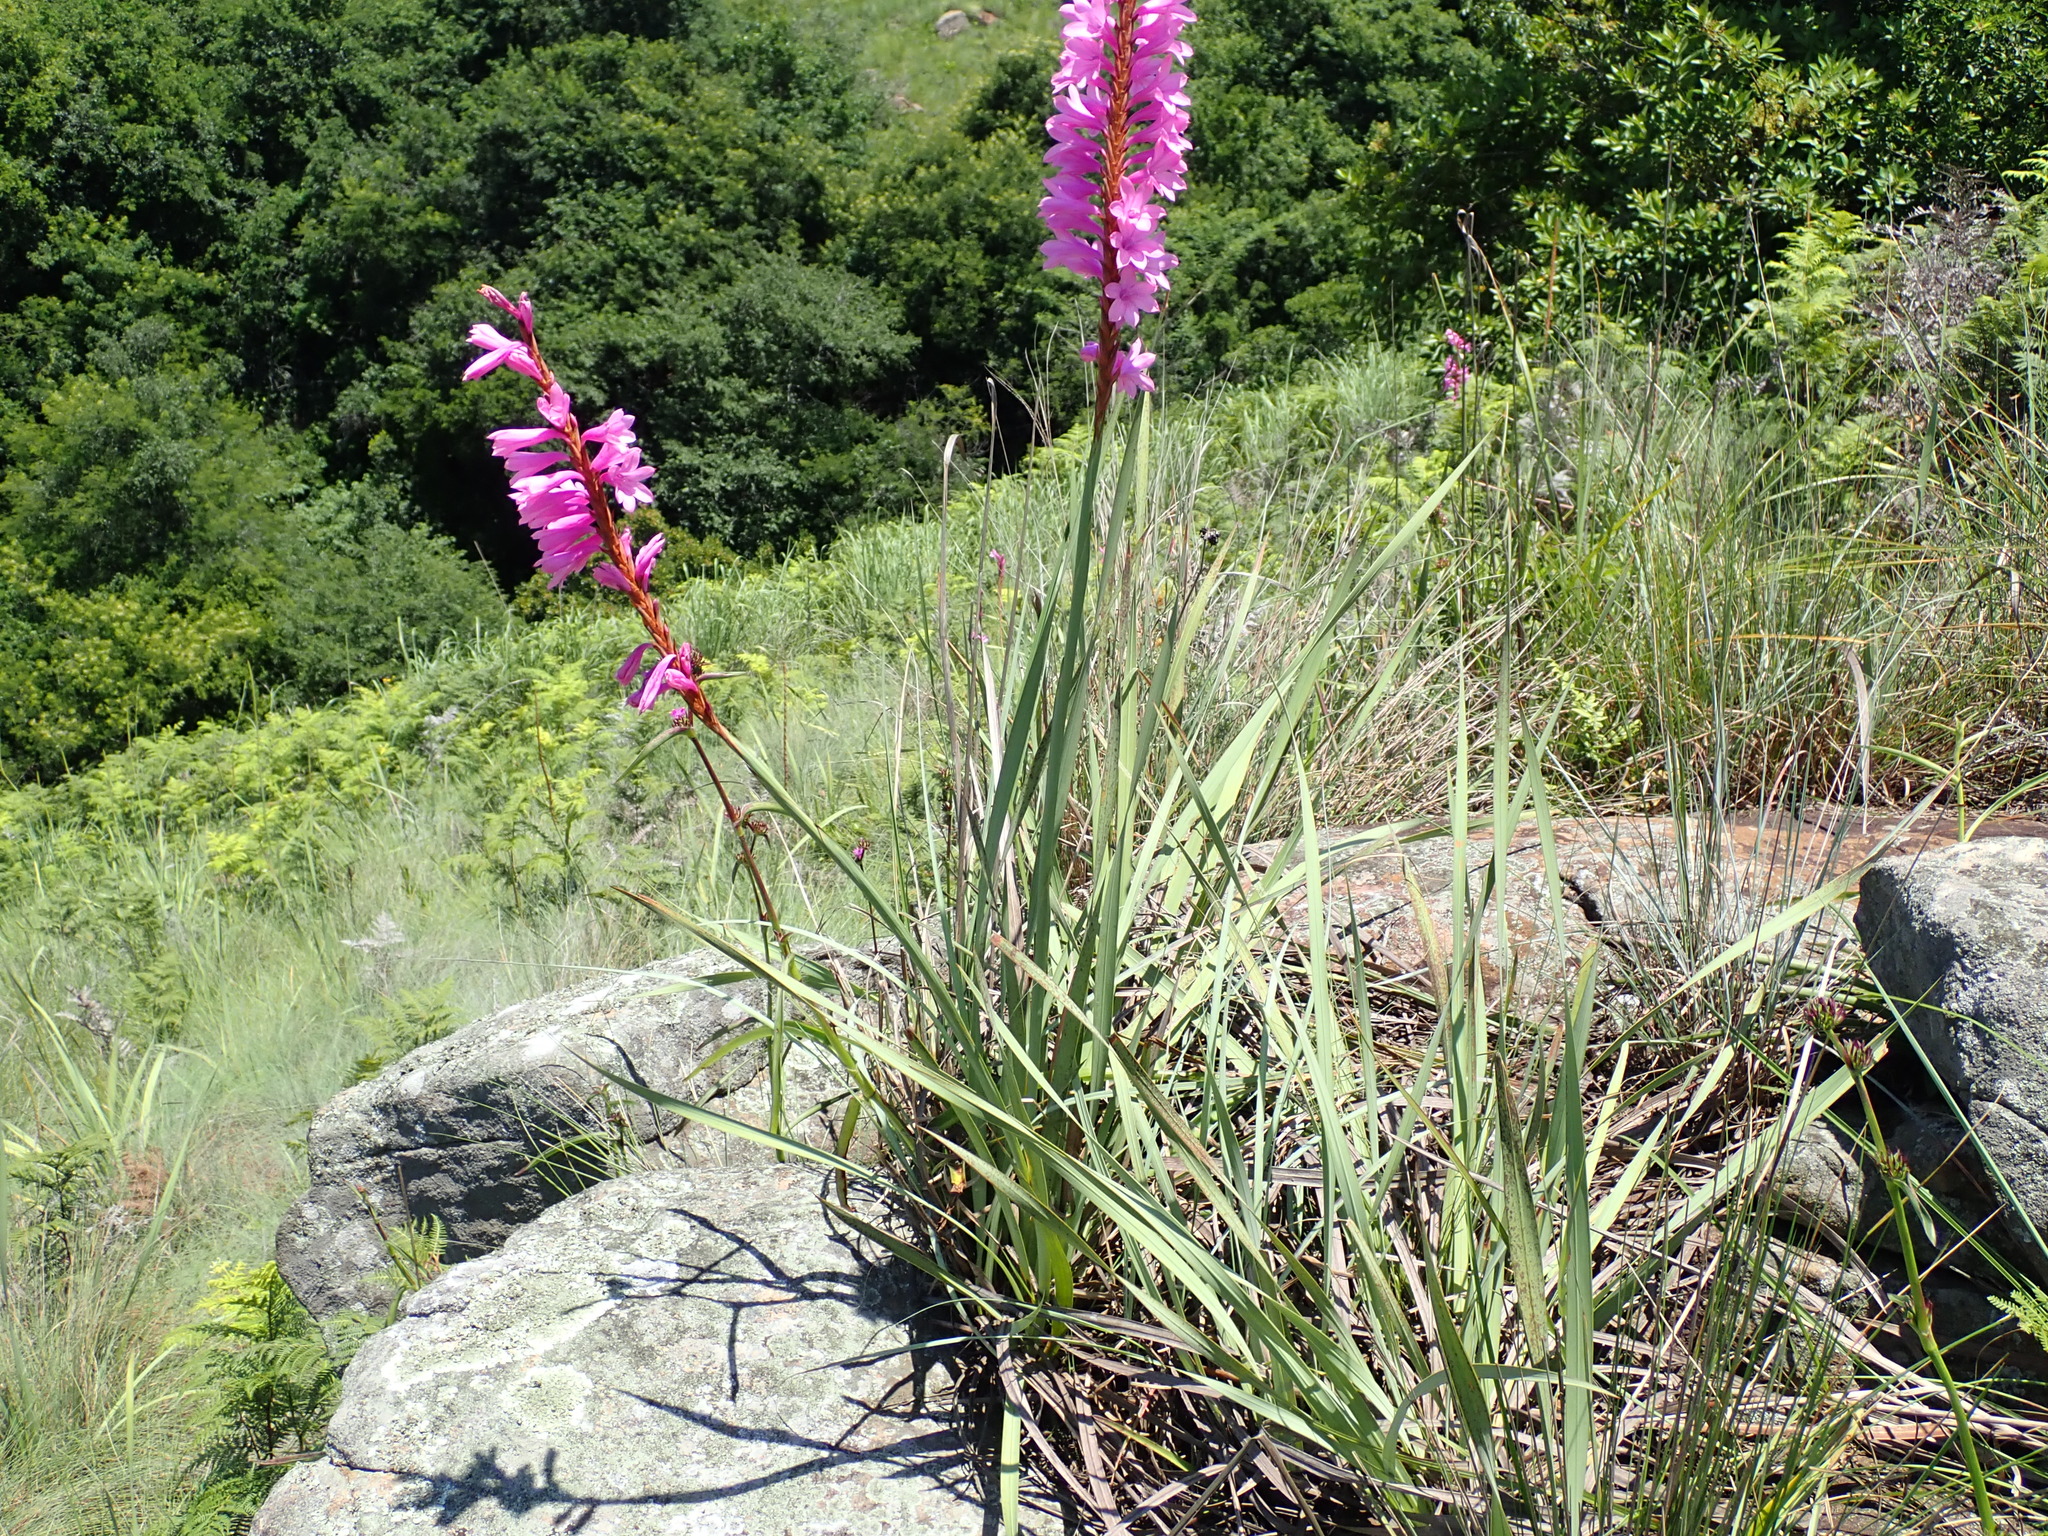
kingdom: Plantae
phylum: Tracheophyta
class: Liliopsida
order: Asparagales
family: Iridaceae
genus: Watsonia
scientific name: Watsonia densiflora
